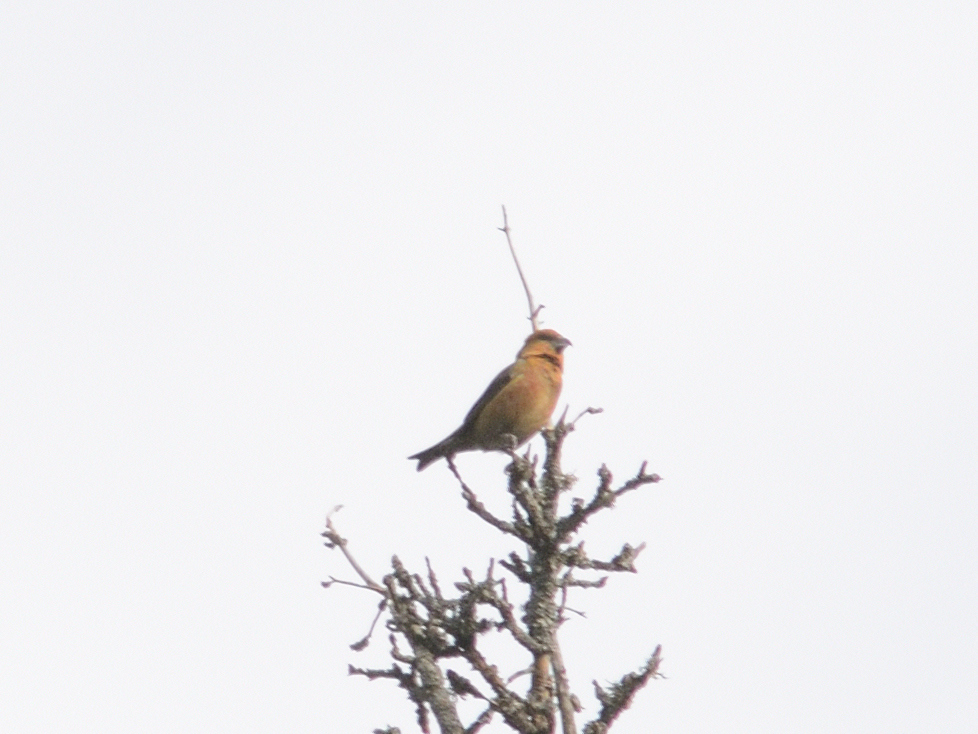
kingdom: Animalia
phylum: Chordata
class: Aves
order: Passeriformes
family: Fringillidae
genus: Loxia
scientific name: Loxia curvirostra
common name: Red crossbill
